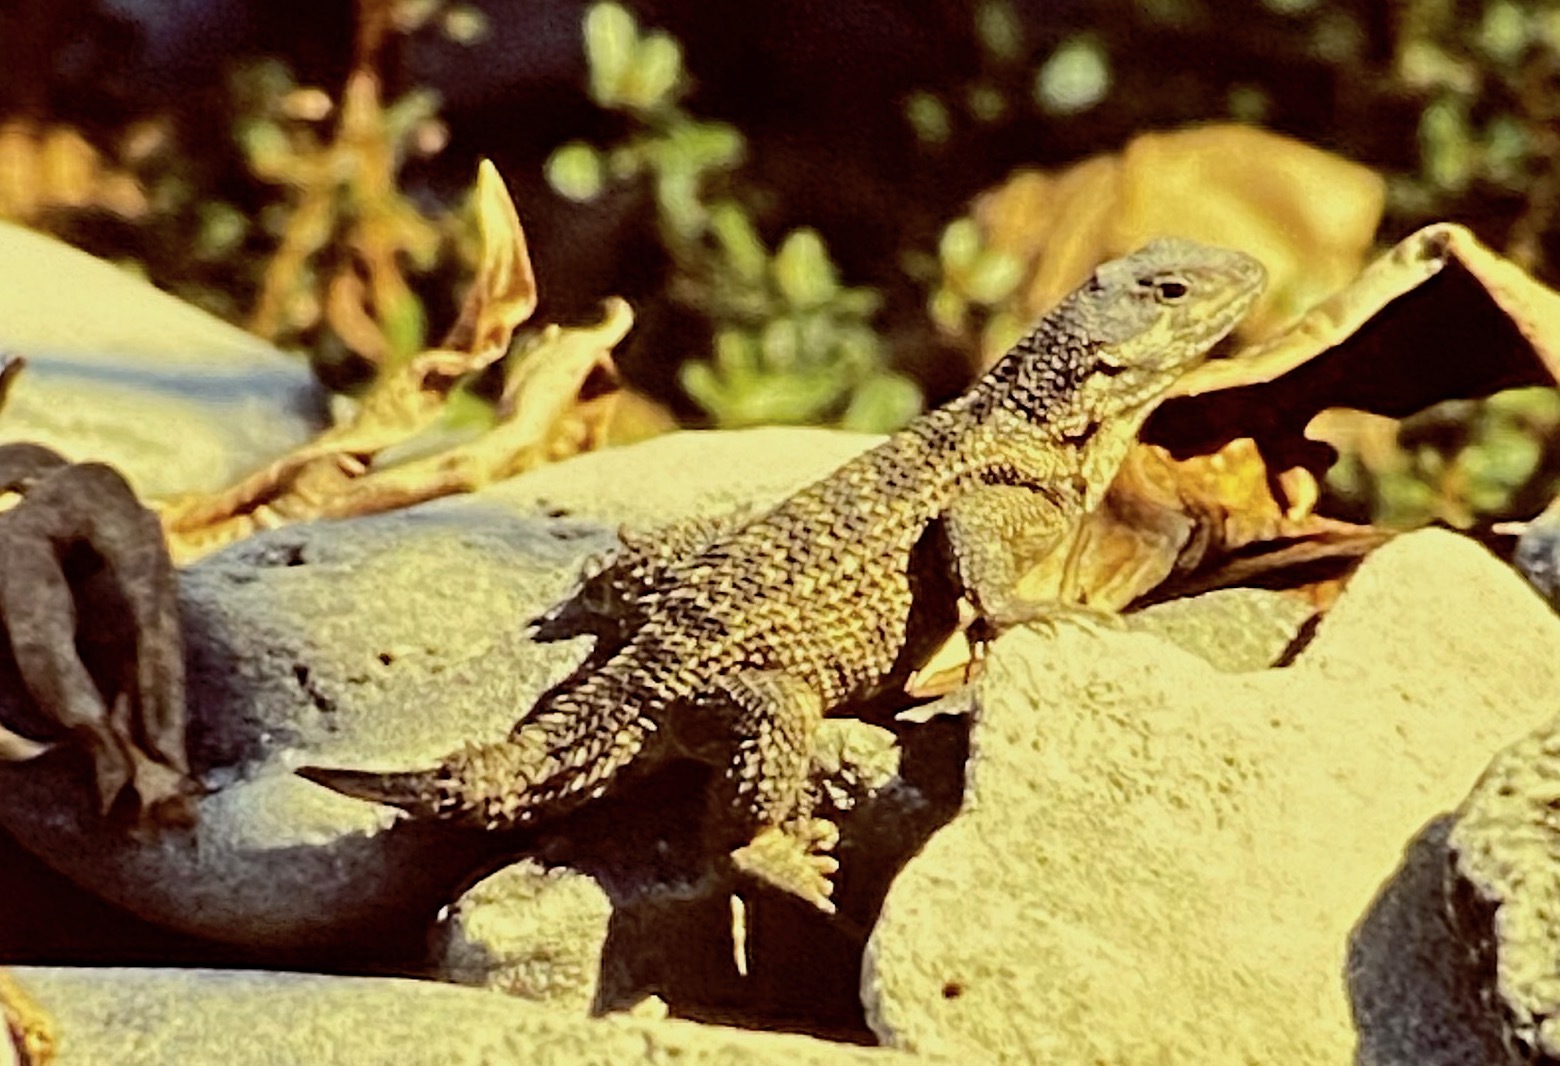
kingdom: Animalia
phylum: Chordata
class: Squamata
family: Leiocephalidae
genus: Leiocephalus
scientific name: Leiocephalus carinatus
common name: Northern curly-tailed lizard
